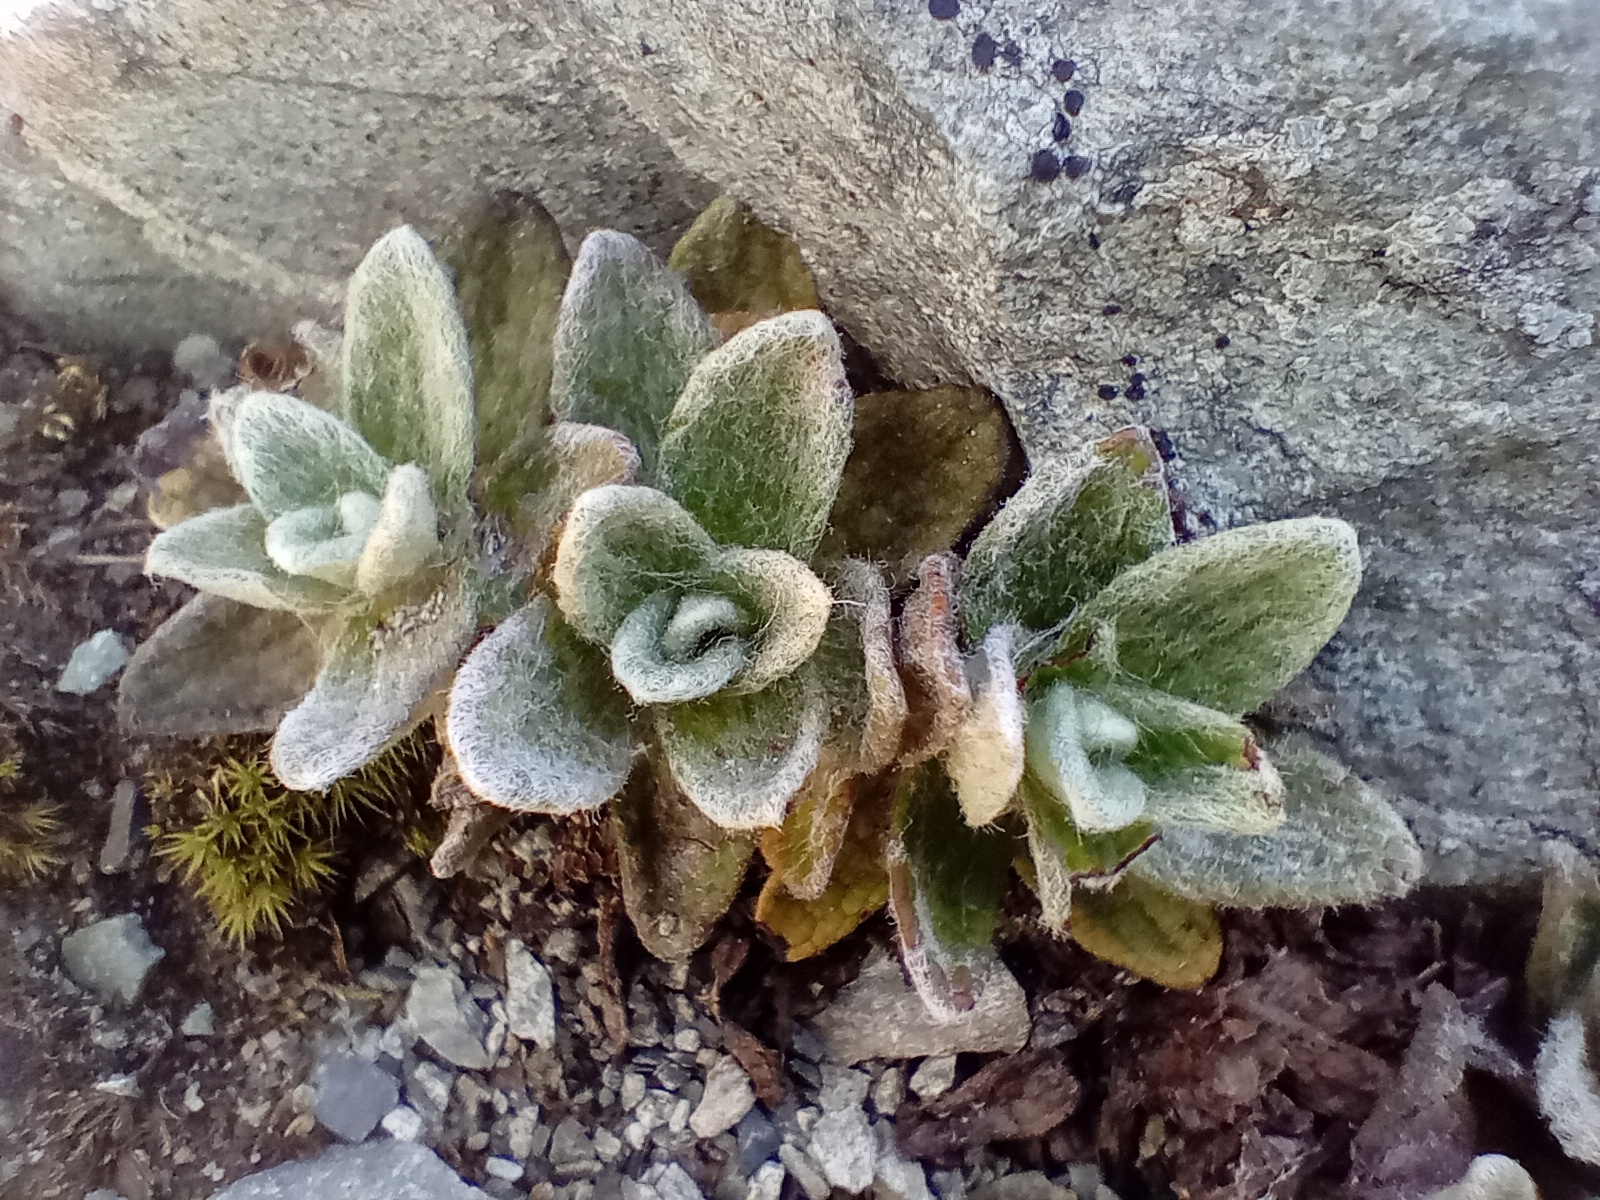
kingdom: Plantae
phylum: Tracheophyta
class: Magnoliopsida
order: Asterales
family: Asteraceae
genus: Haastia
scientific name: Haastia sinclairii
